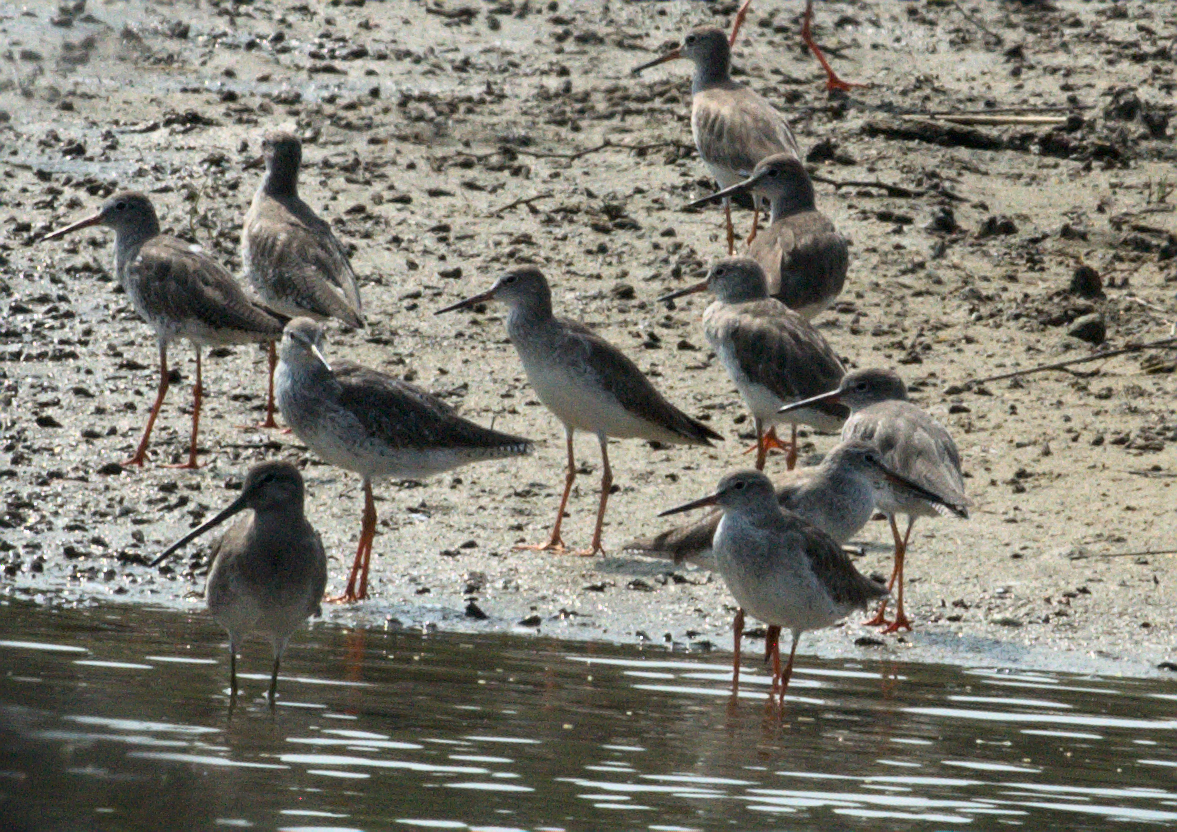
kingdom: Animalia
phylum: Chordata
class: Aves
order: Charadriiformes
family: Scolopacidae
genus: Tringa
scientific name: Tringa totanus
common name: Common redshank
